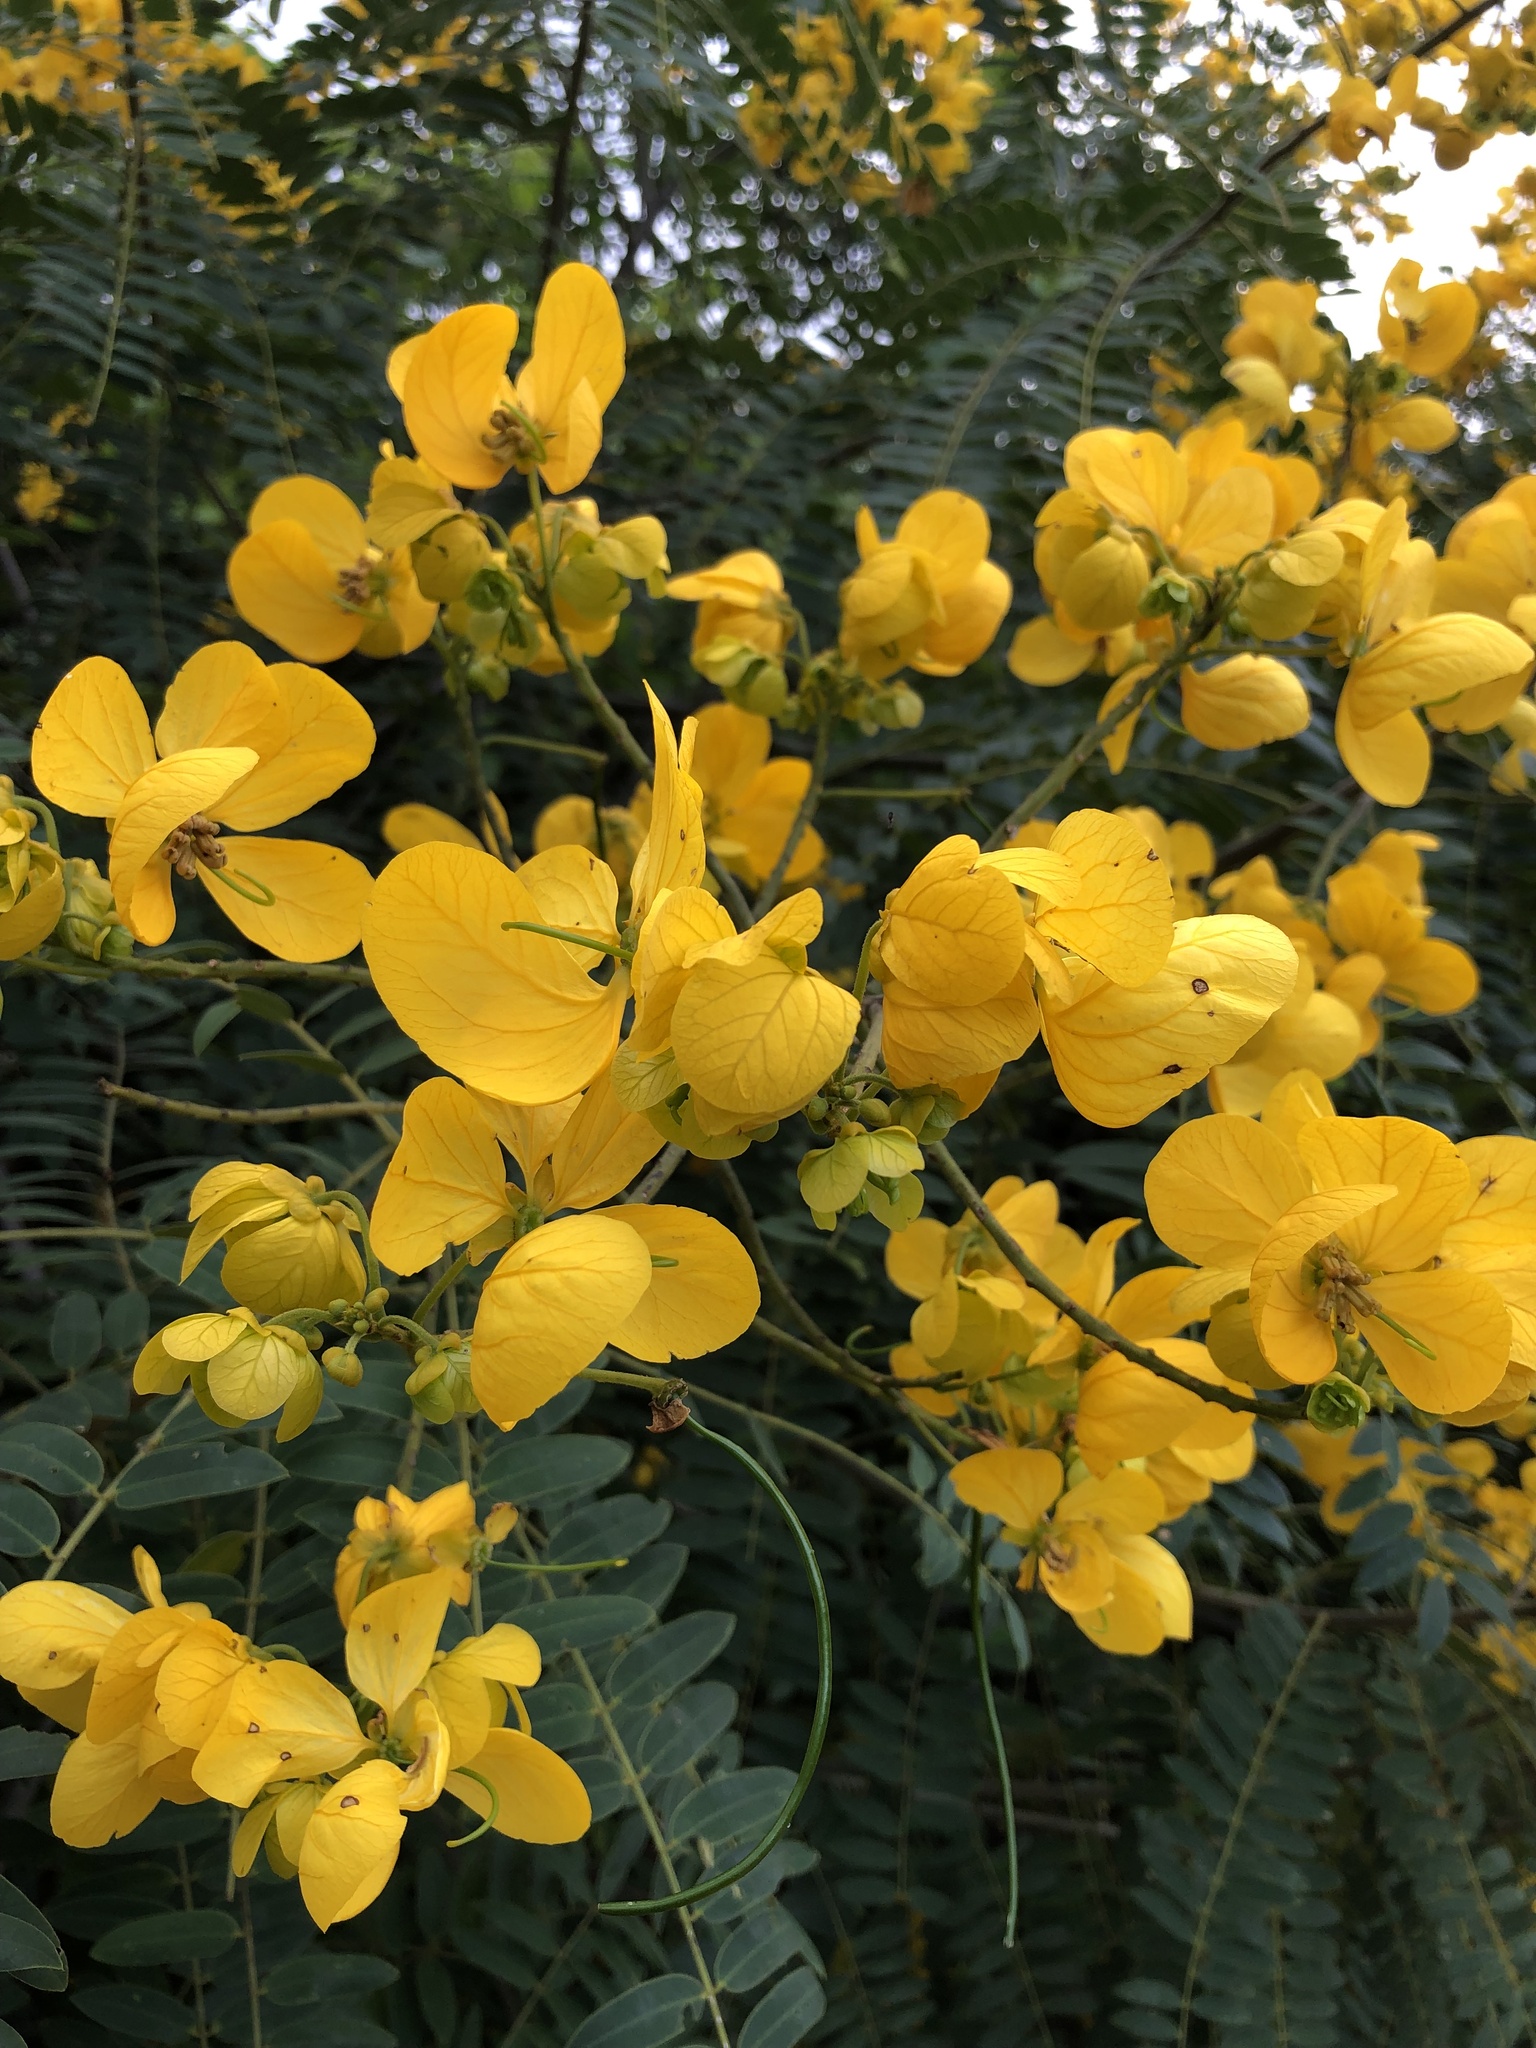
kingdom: Plantae
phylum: Tracheophyta
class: Magnoliopsida
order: Fabales
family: Fabaceae
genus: Senna
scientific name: Senna spectabilis
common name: Casia amarilla
